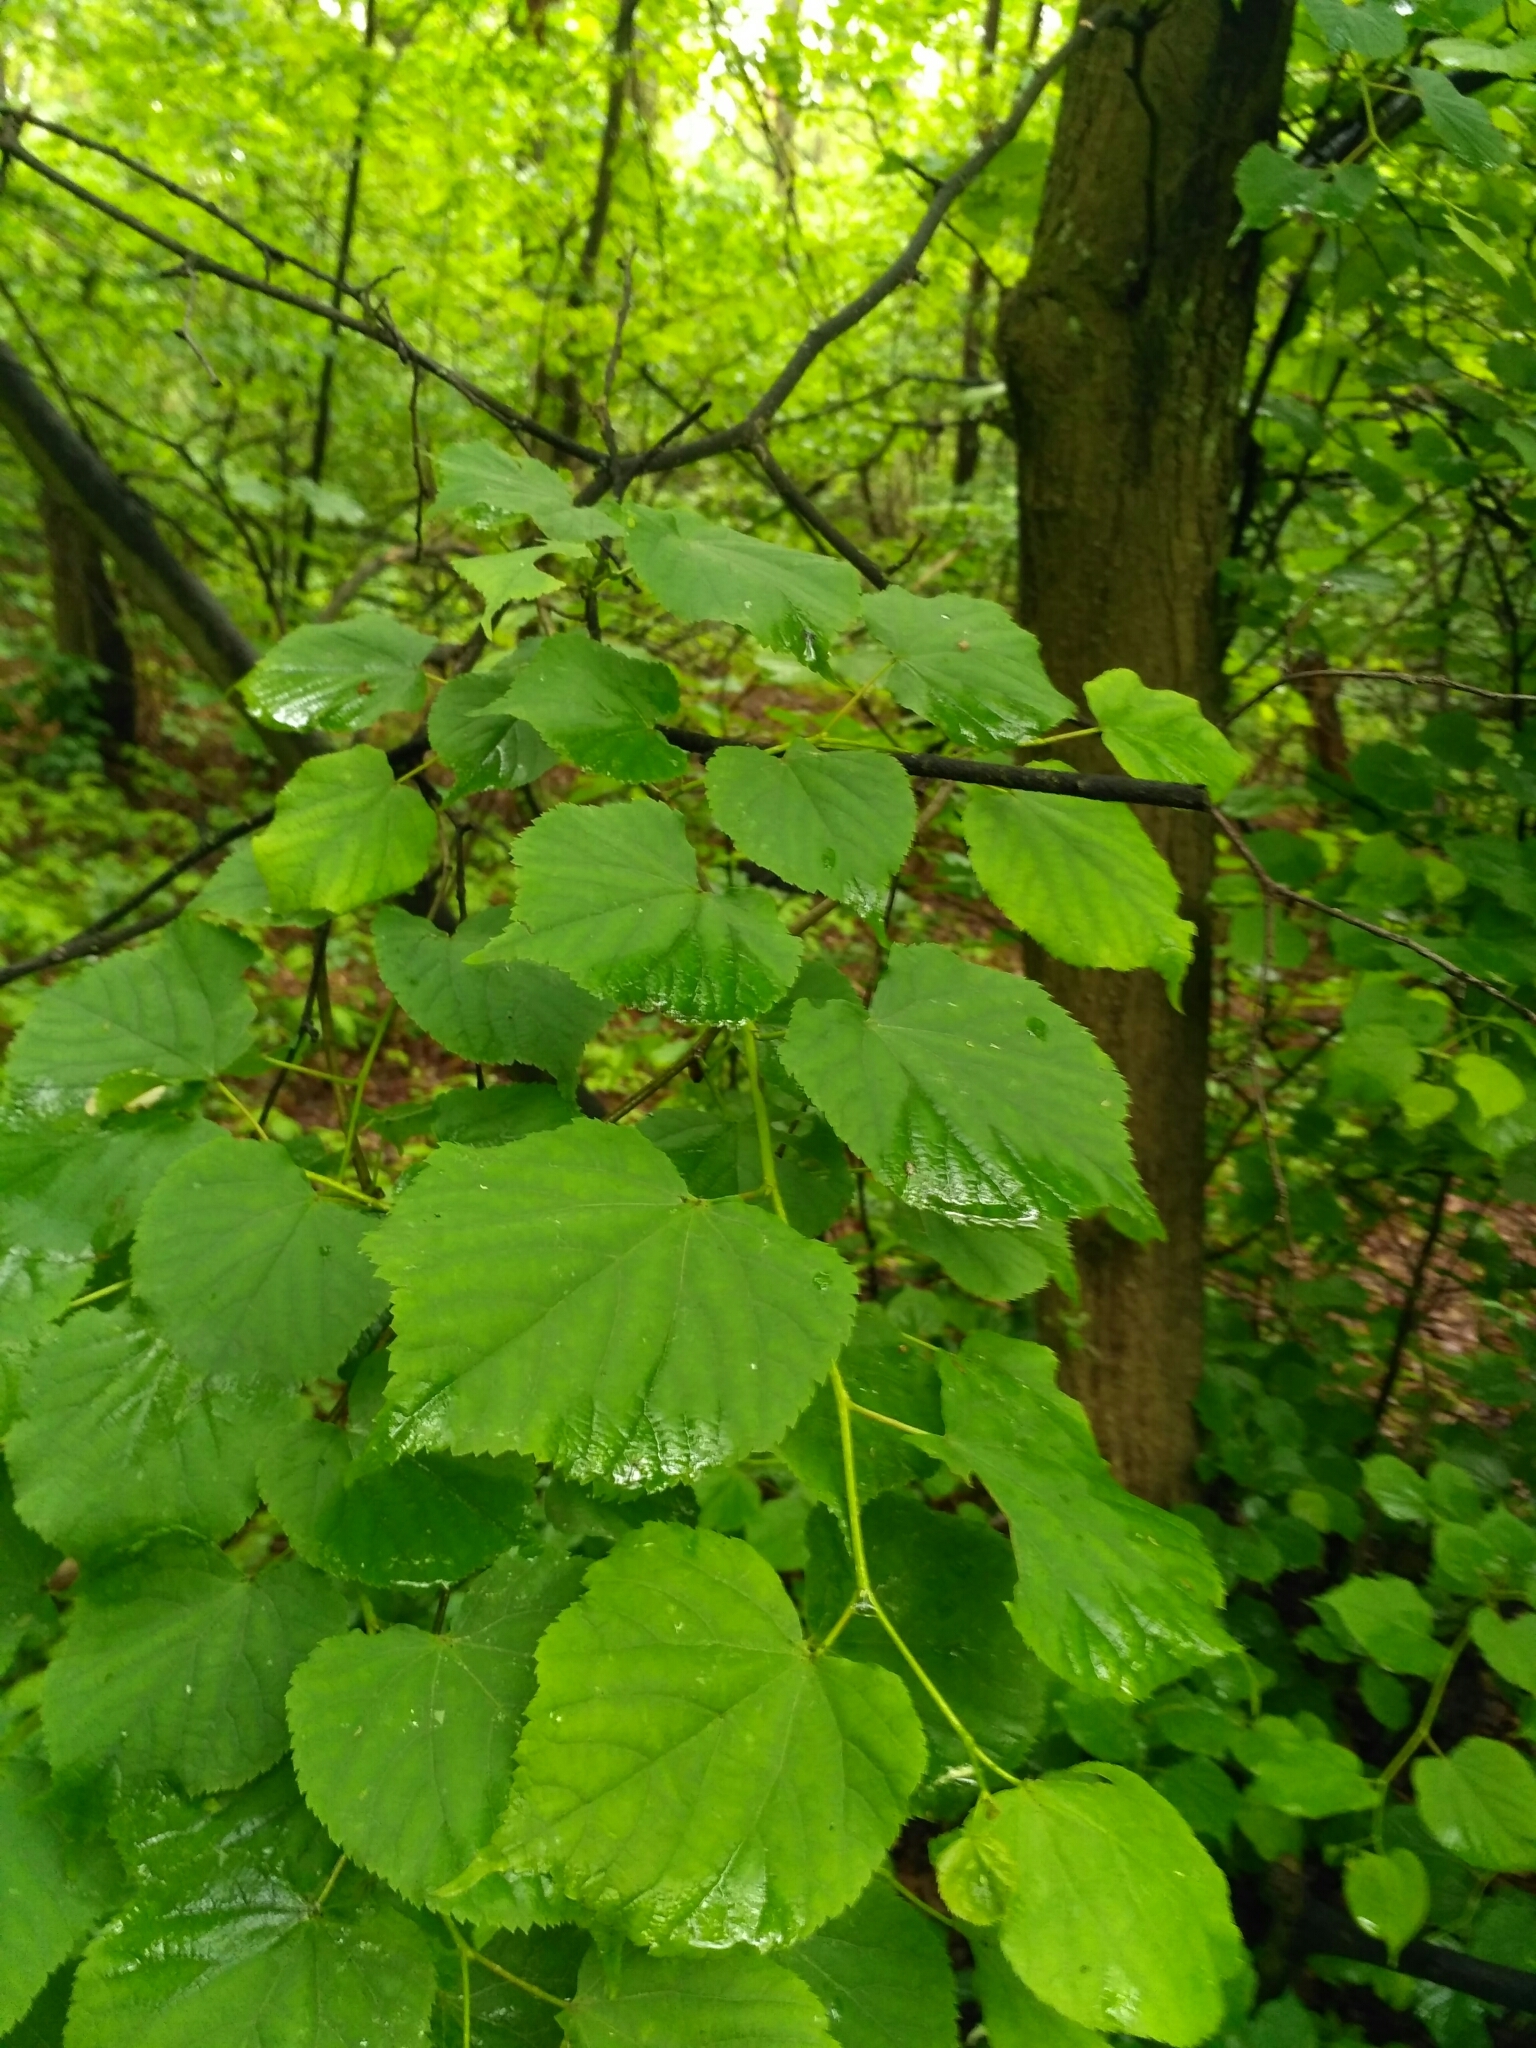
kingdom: Plantae
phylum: Tracheophyta
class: Magnoliopsida
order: Malvales
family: Malvaceae
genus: Tilia
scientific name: Tilia cordata
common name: Small-leaved lime
